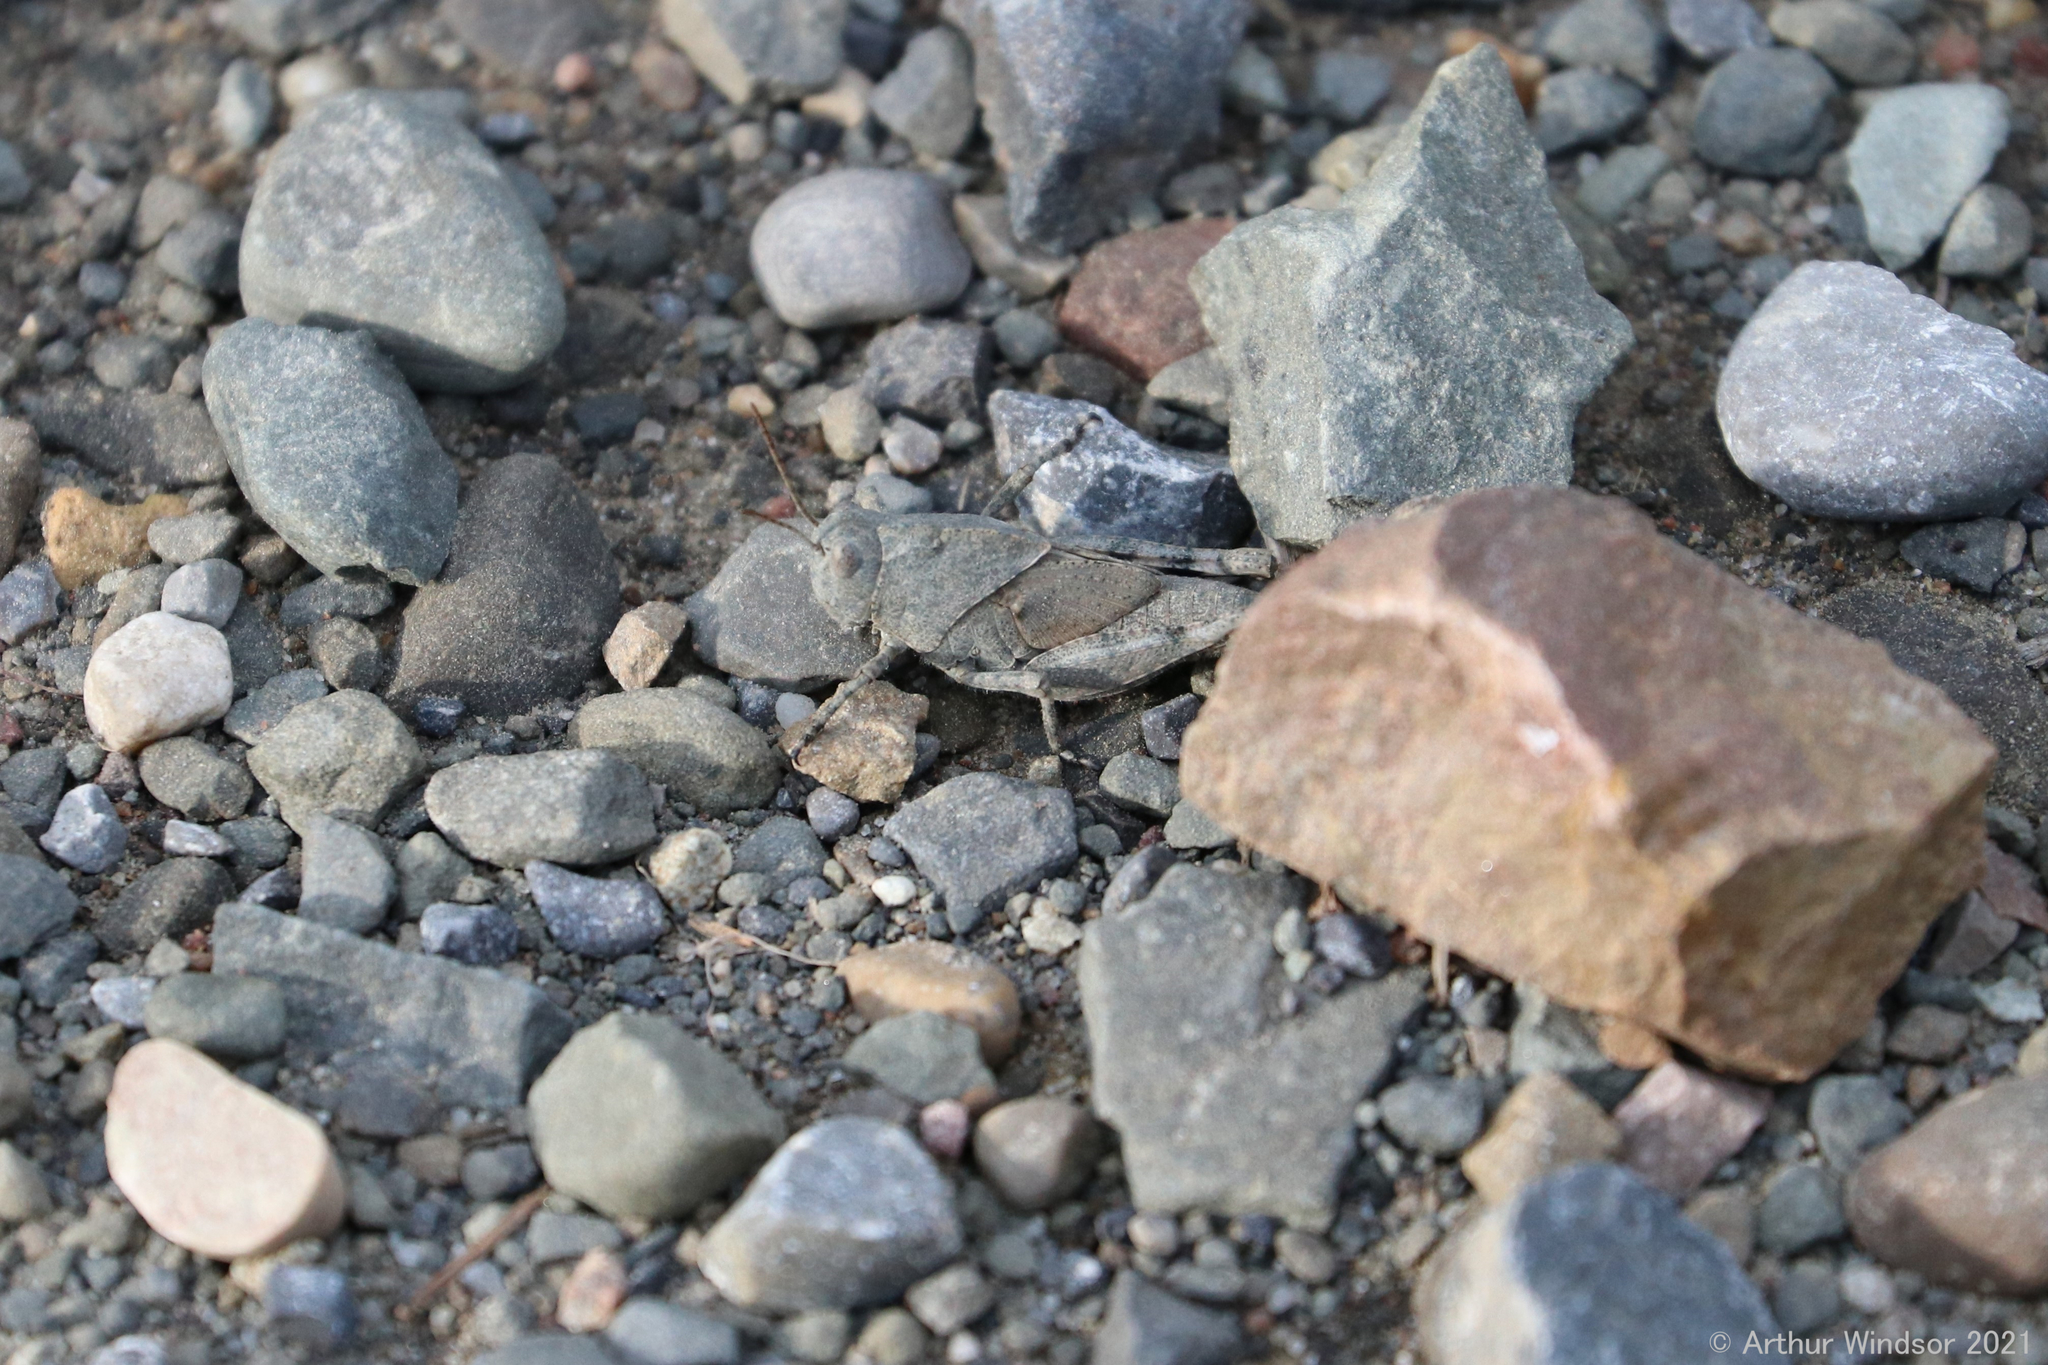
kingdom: Animalia
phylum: Arthropoda
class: Insecta
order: Orthoptera
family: Acrididae
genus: Dissosteira
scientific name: Dissosteira carolina
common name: Carolina grasshopper
